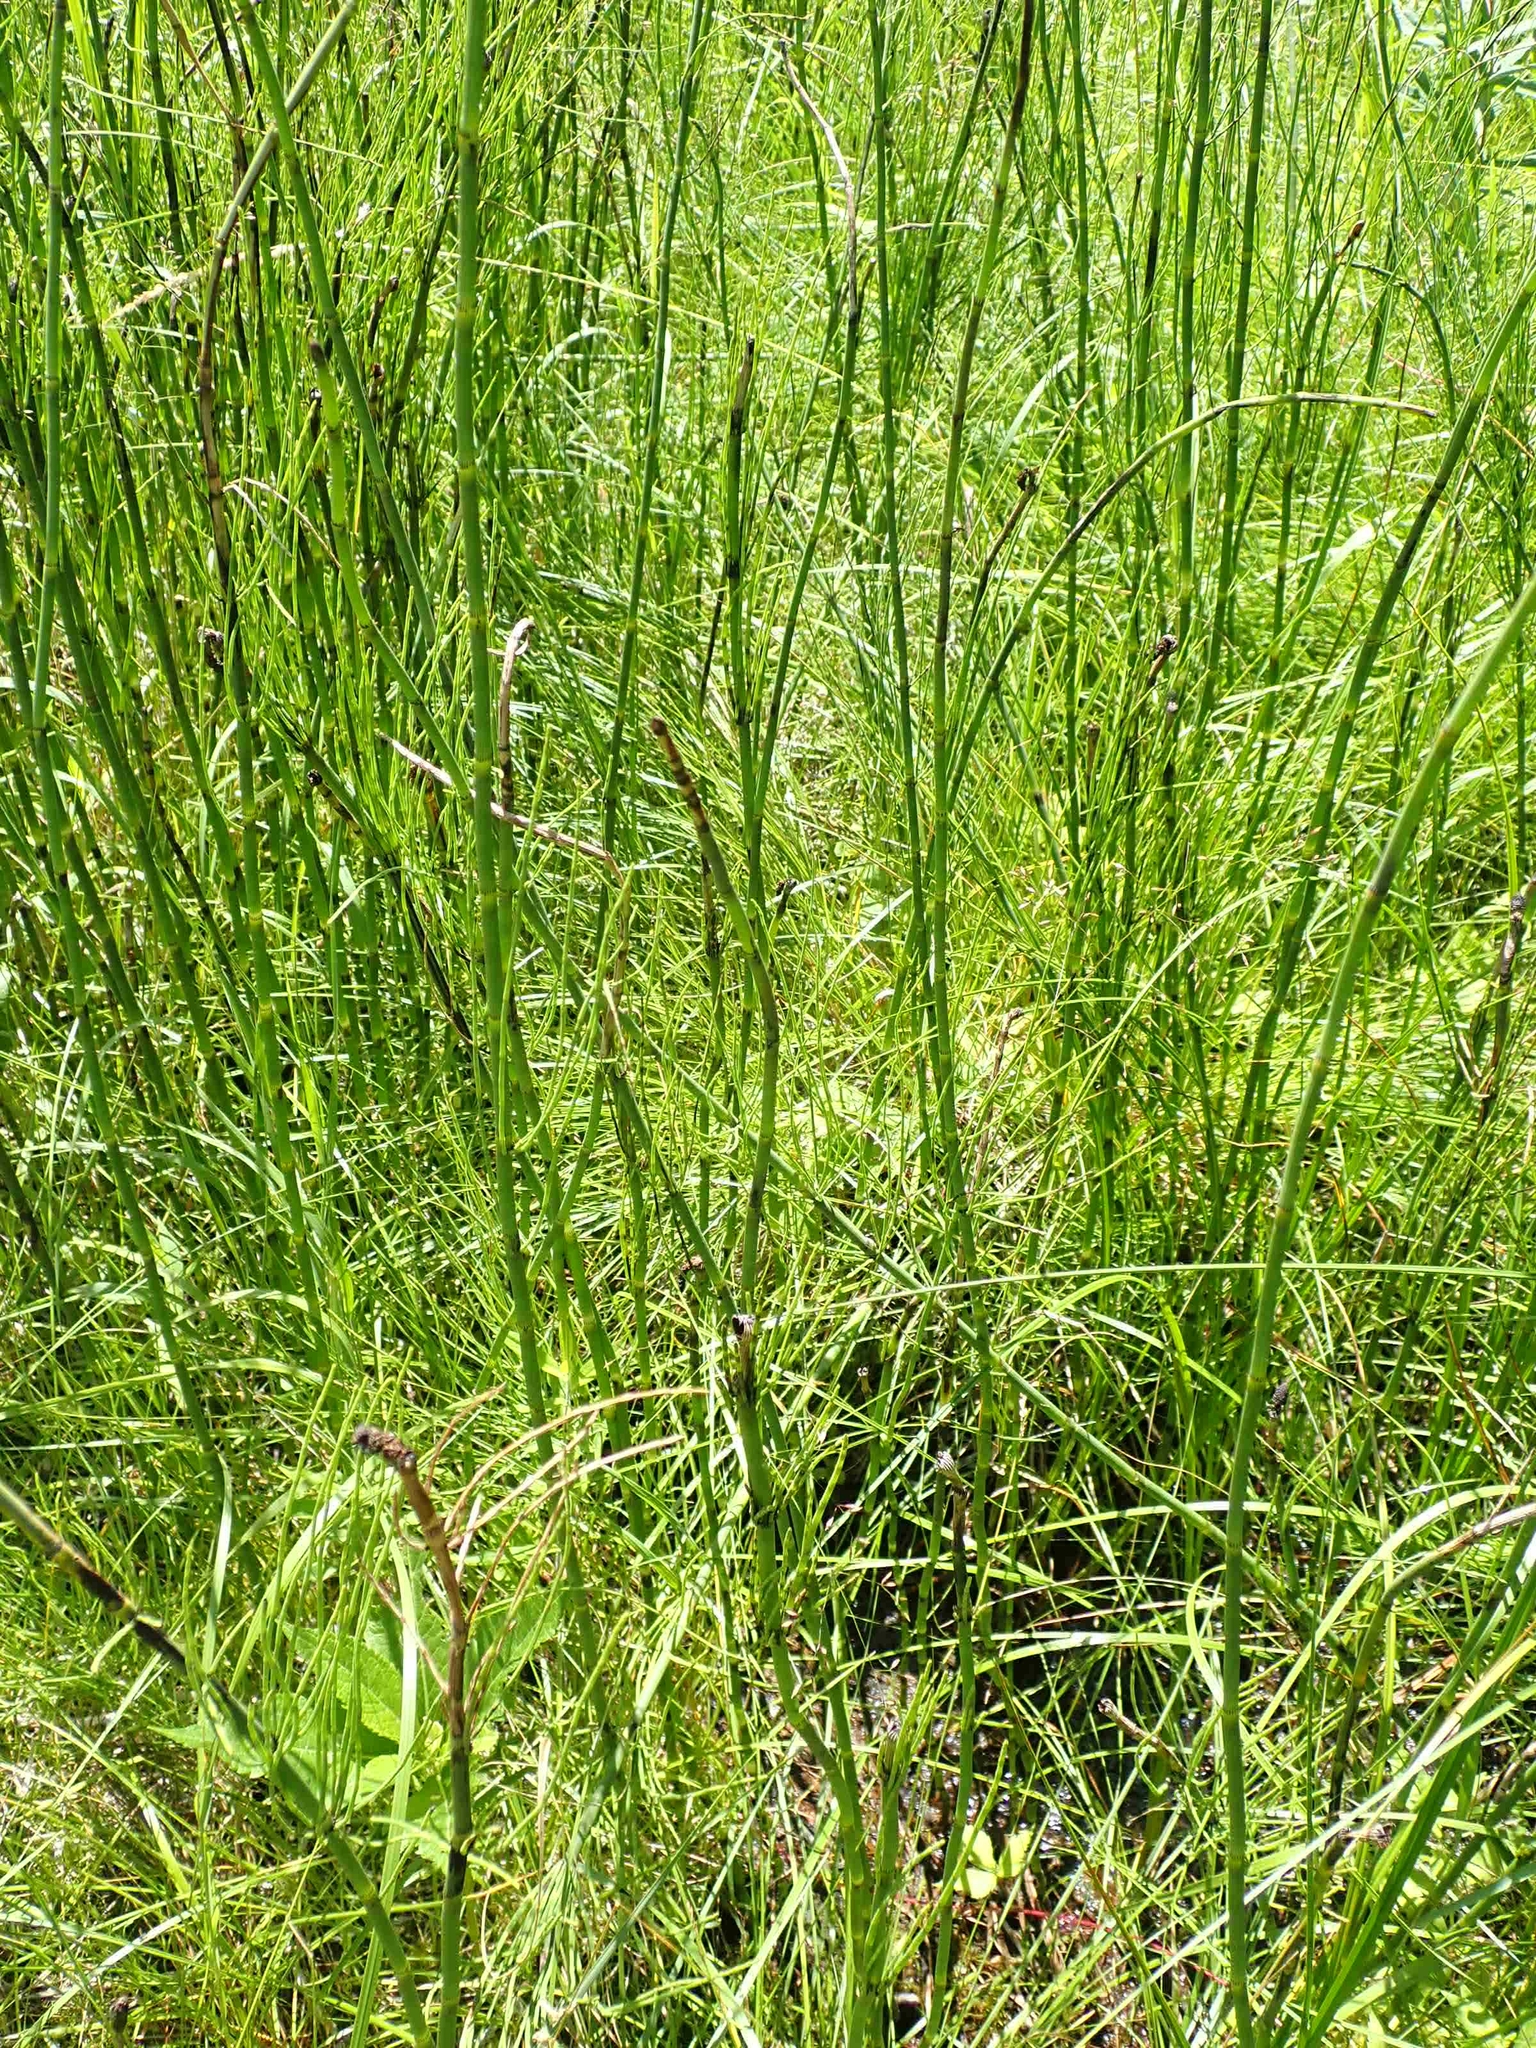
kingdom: Plantae
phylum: Tracheophyta
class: Polypodiopsida
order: Equisetales
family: Equisetaceae
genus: Equisetum
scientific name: Equisetum fluviatile
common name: Water horsetail
